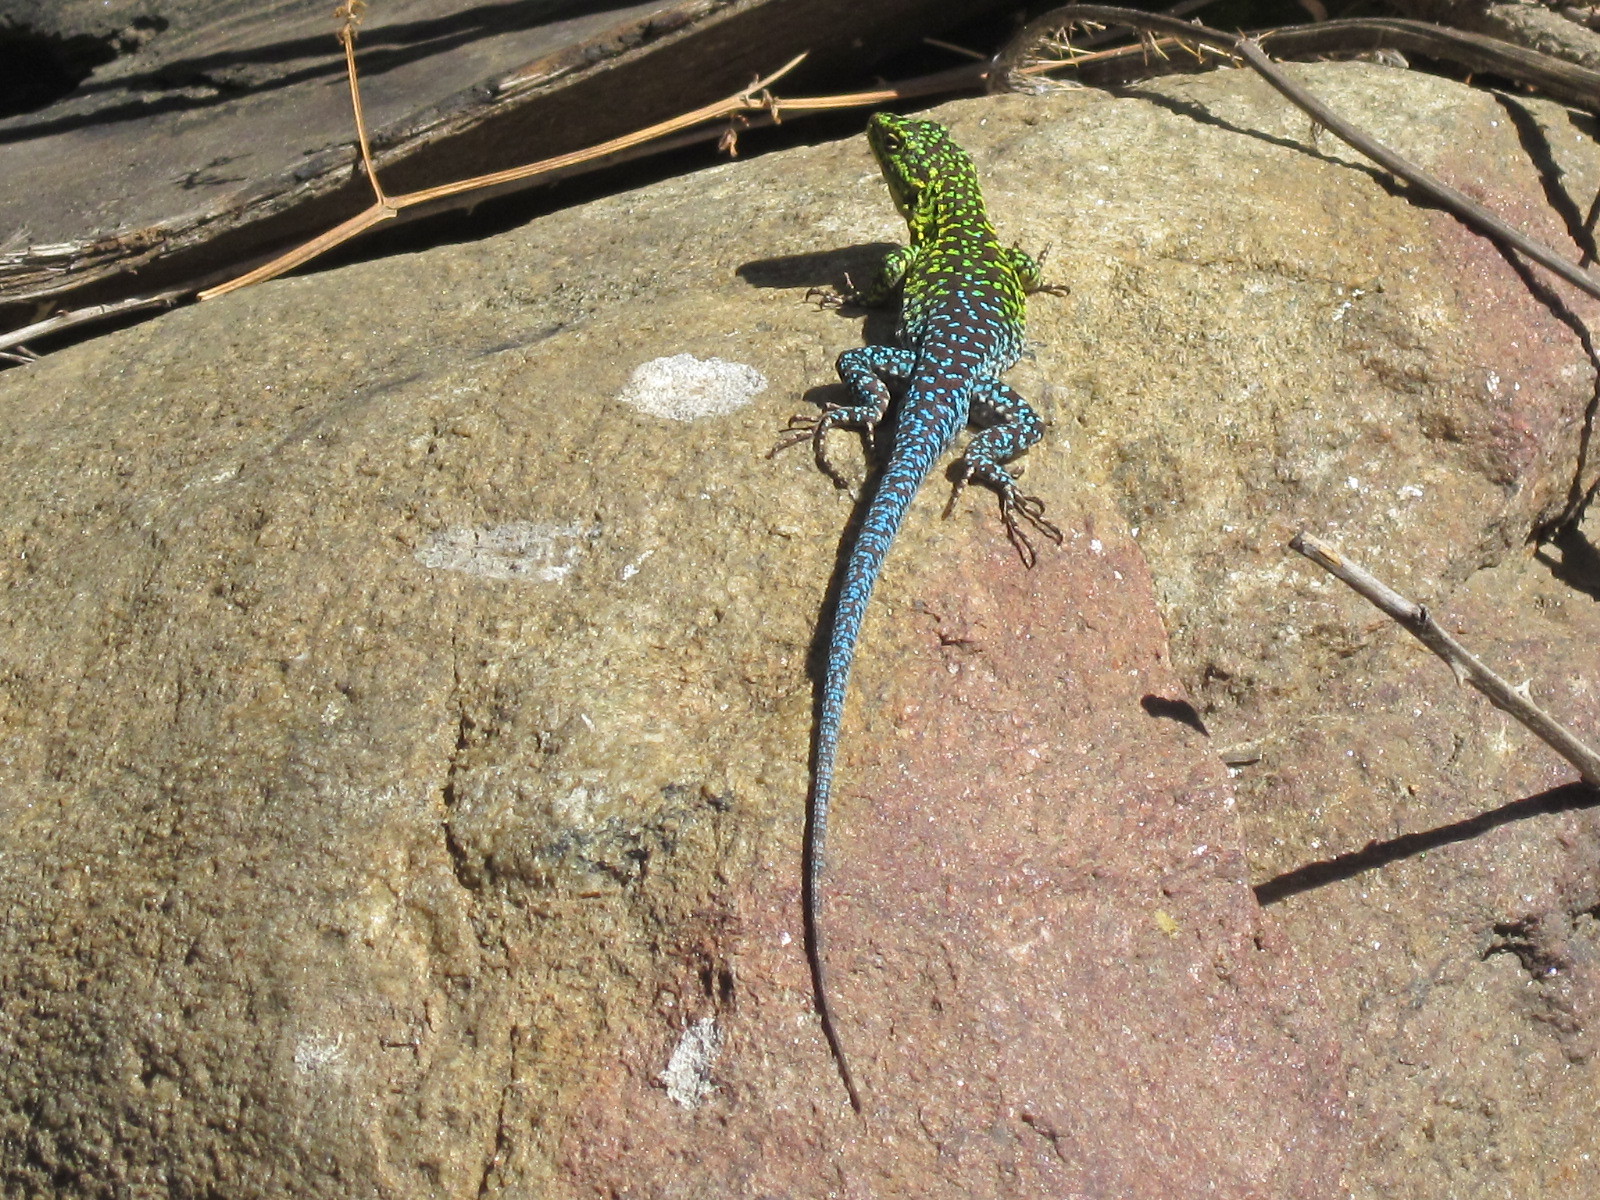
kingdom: Animalia
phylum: Chordata
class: Squamata
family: Liolaemidae
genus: Liolaemus
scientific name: Liolaemus tenuis
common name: Thin tree iguana
